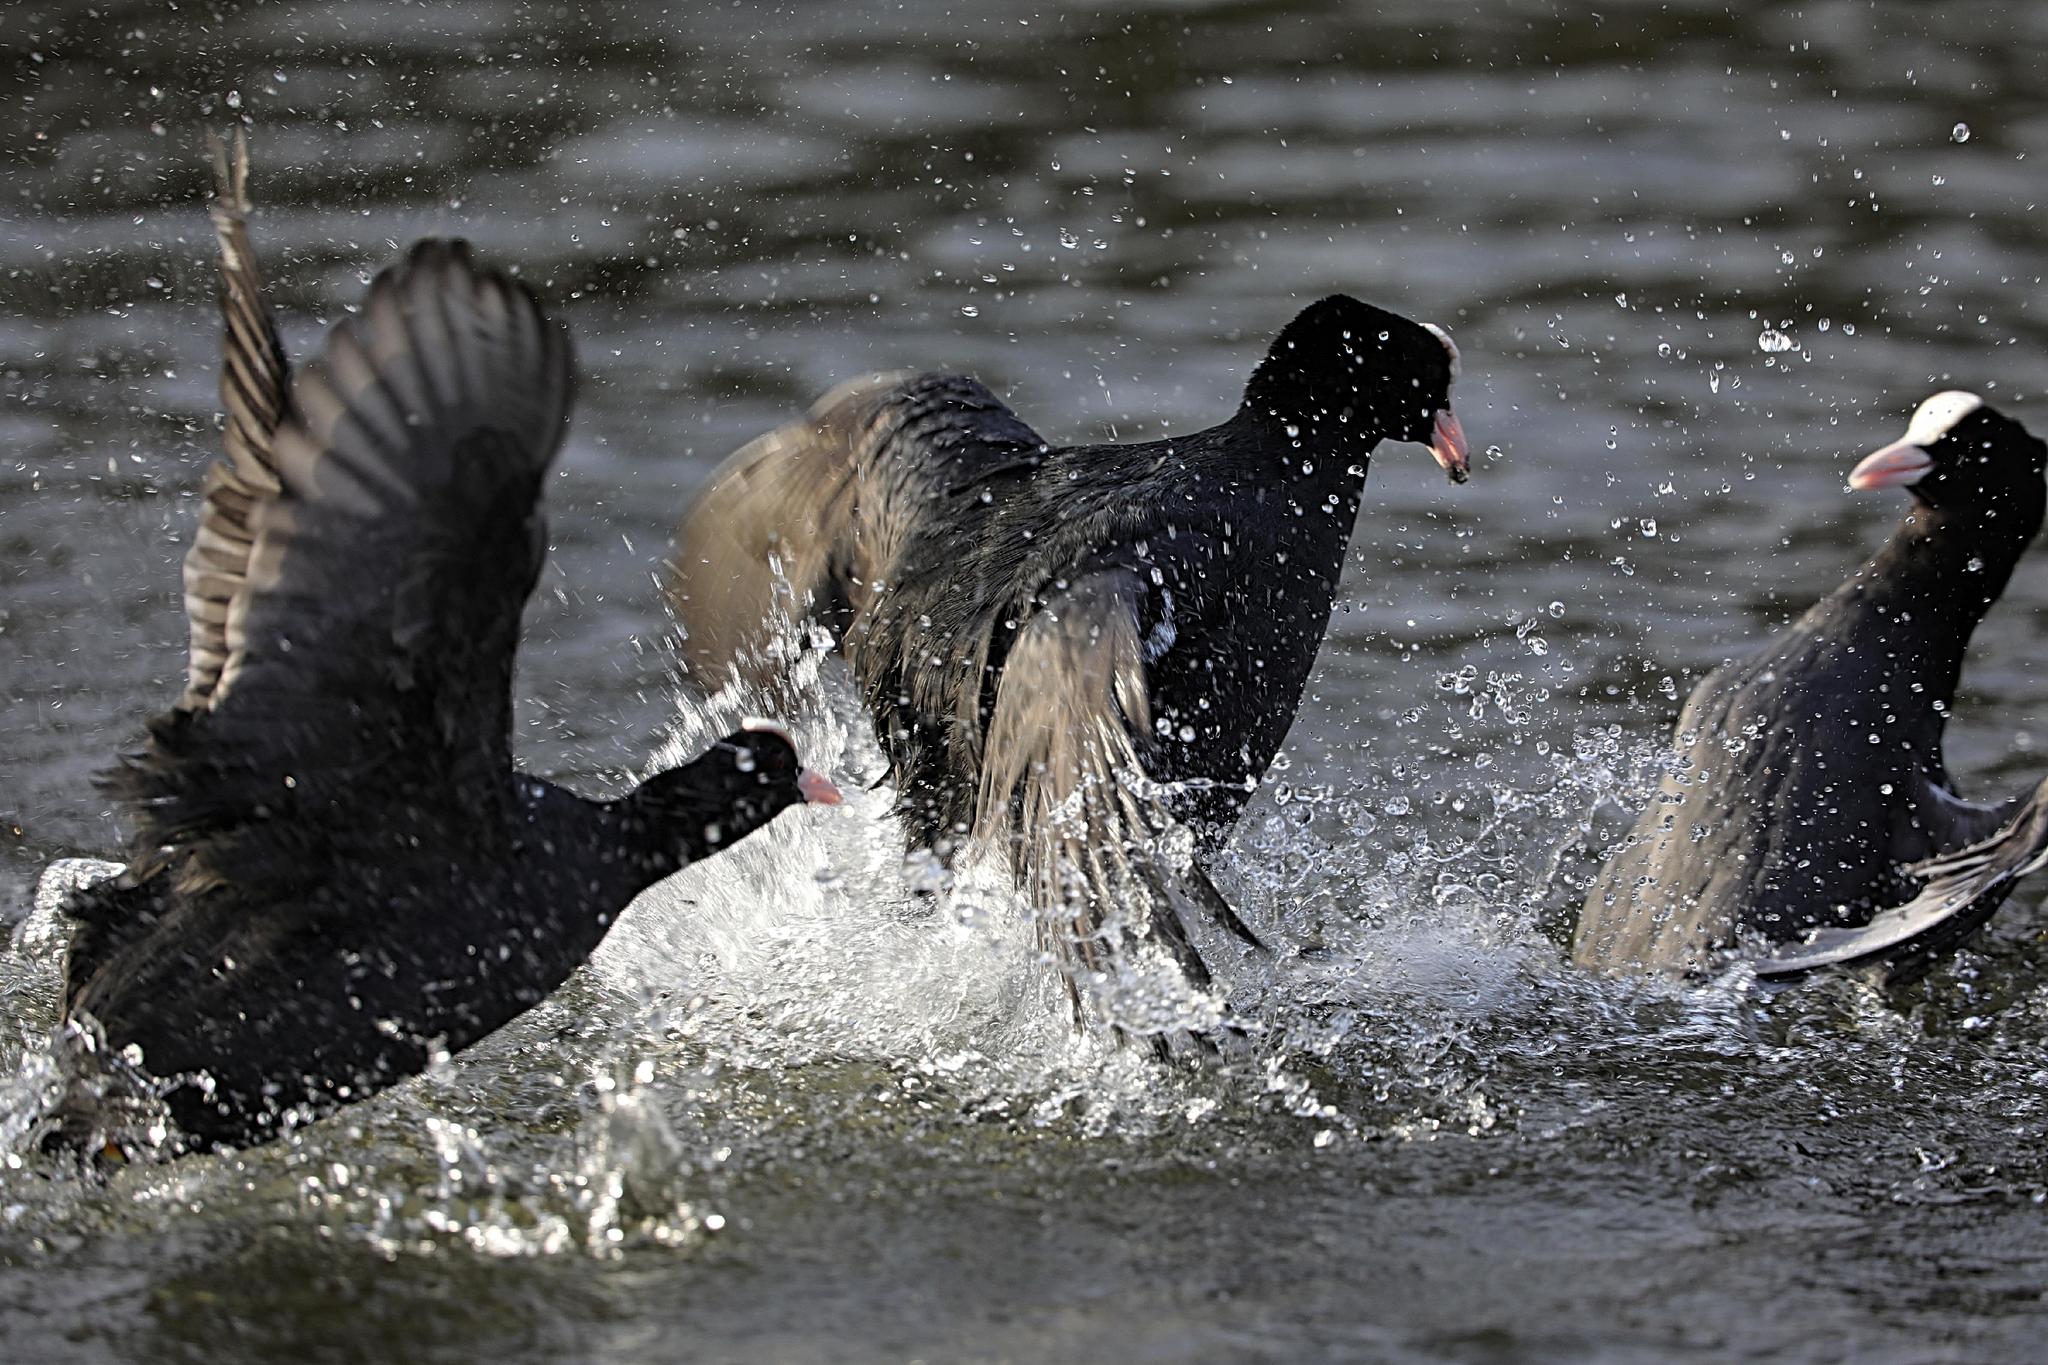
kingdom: Animalia
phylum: Chordata
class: Aves
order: Gruiformes
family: Rallidae
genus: Fulica
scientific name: Fulica atra
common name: Eurasian coot
